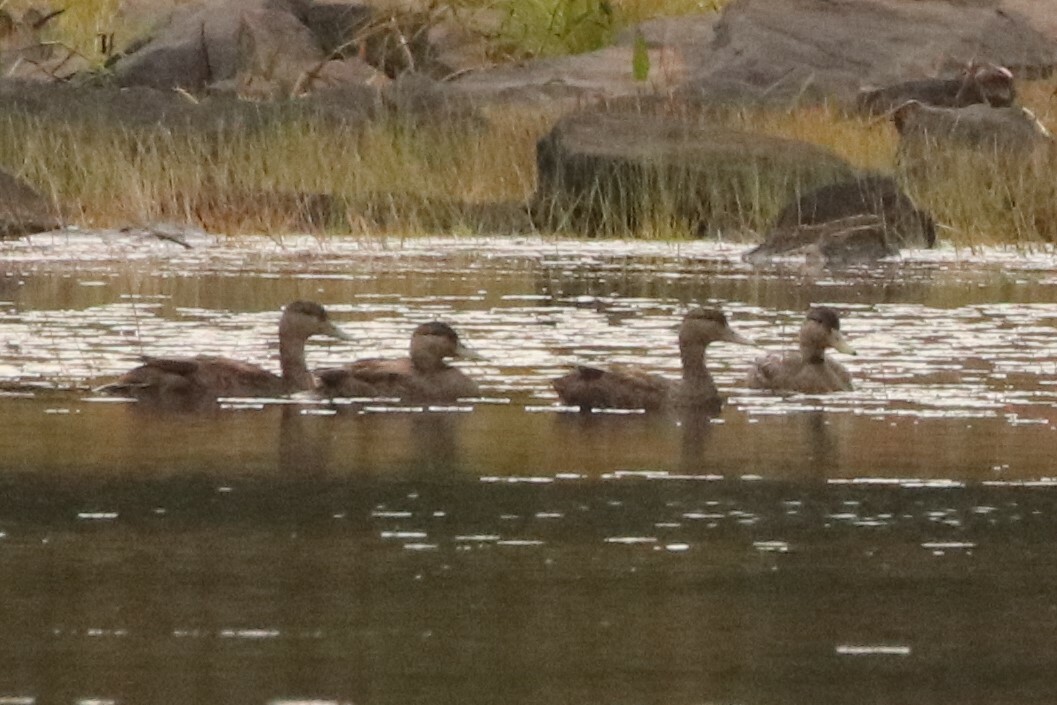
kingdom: Animalia
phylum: Chordata
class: Aves
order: Anseriformes
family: Anatidae
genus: Anas
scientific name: Anas rubripes
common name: American black duck
